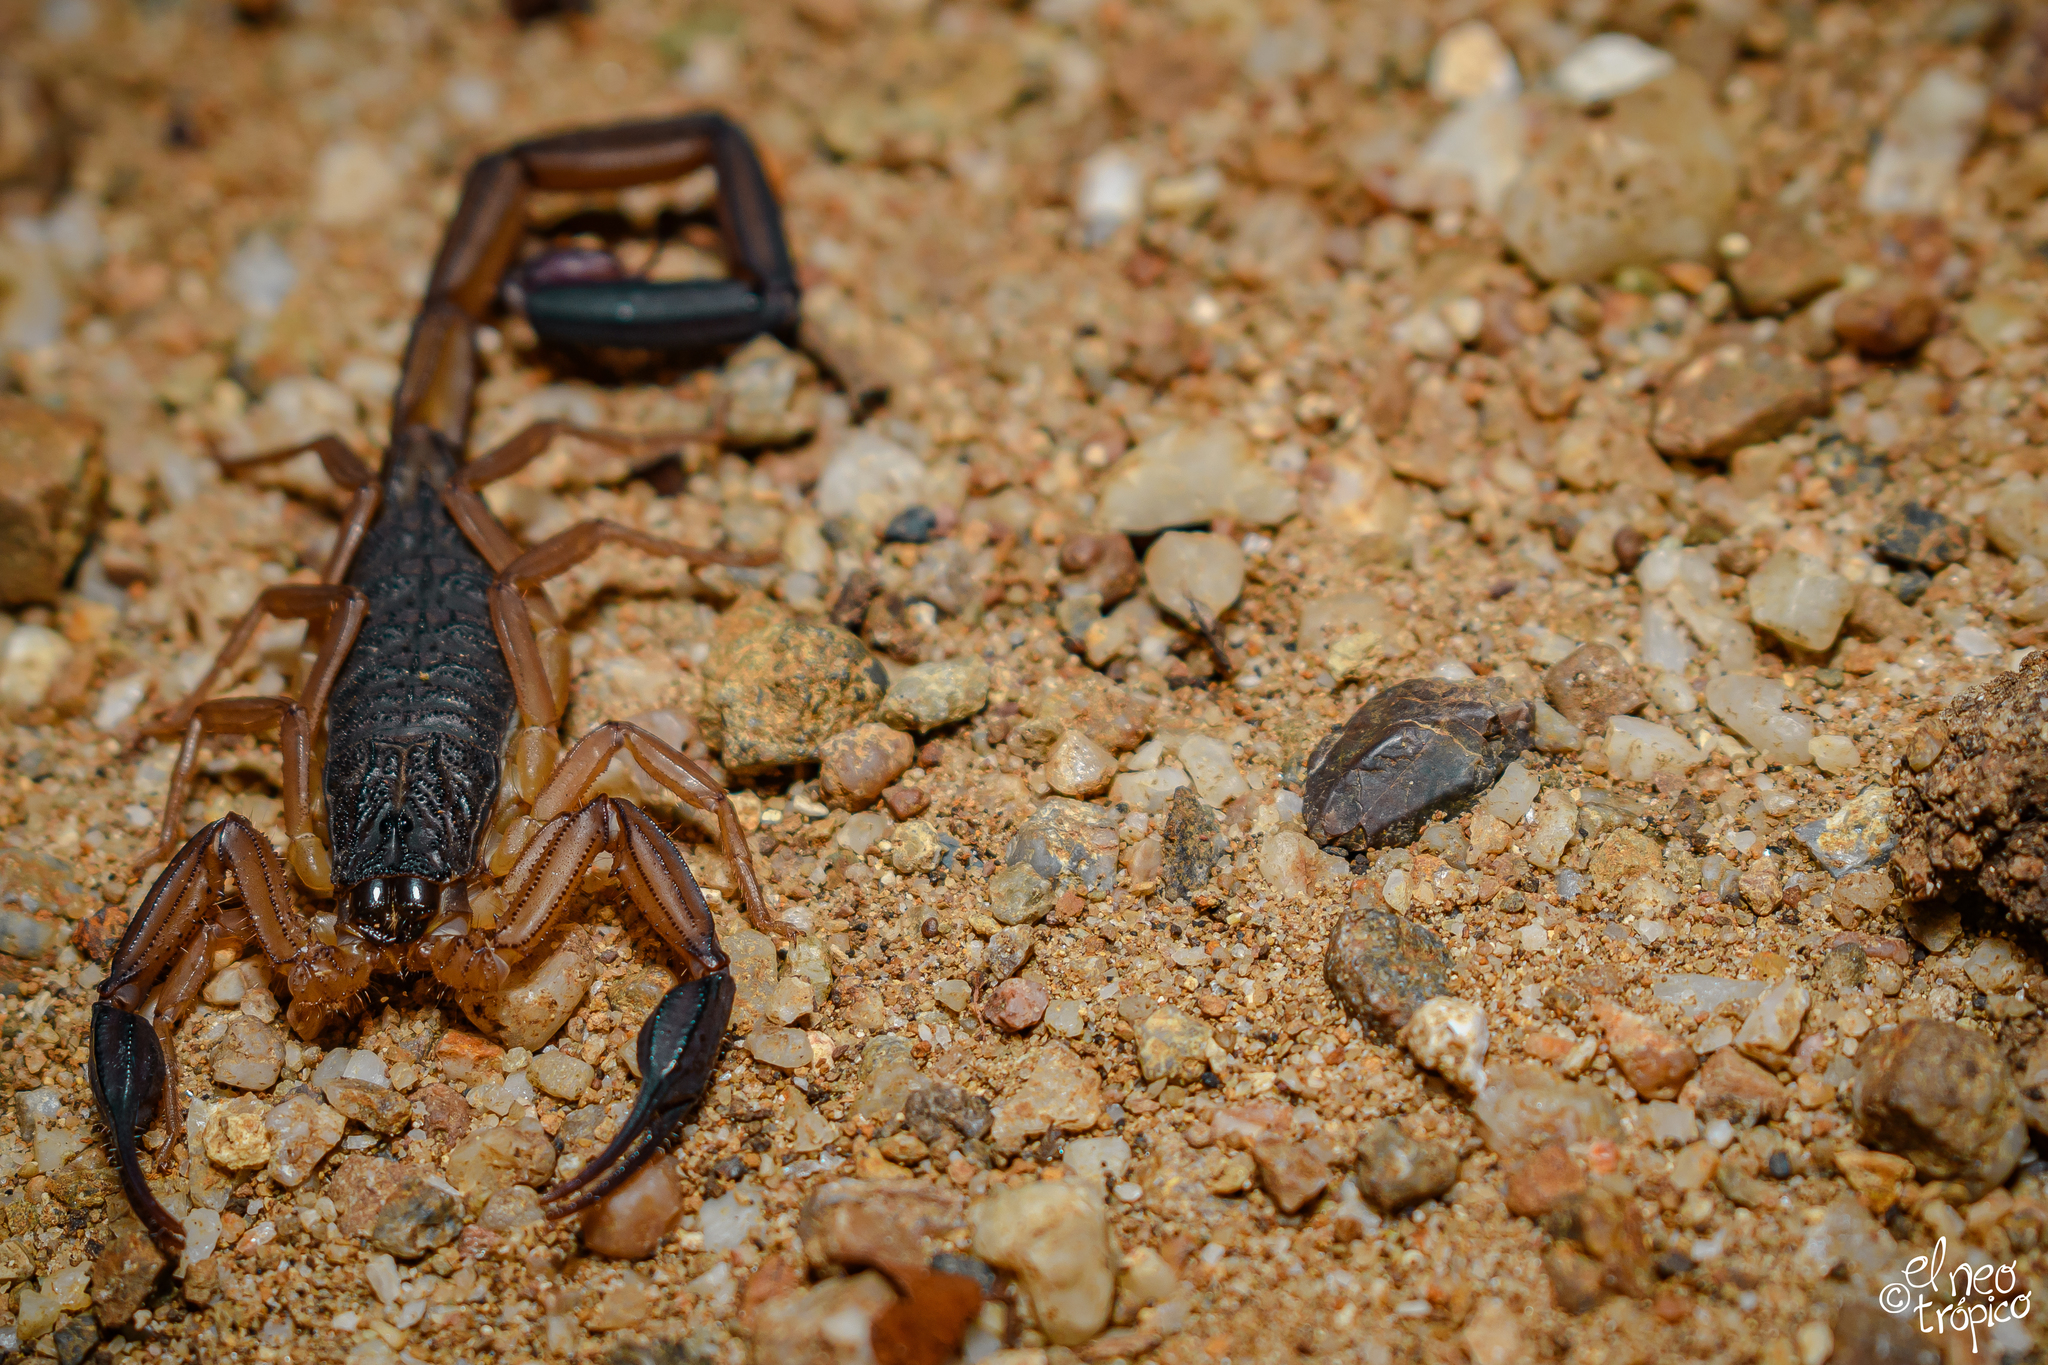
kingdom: Animalia
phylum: Arthropoda
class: Arachnida
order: Scorpiones
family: Buthidae
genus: Centruroides
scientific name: Centruroides chiapanensis
